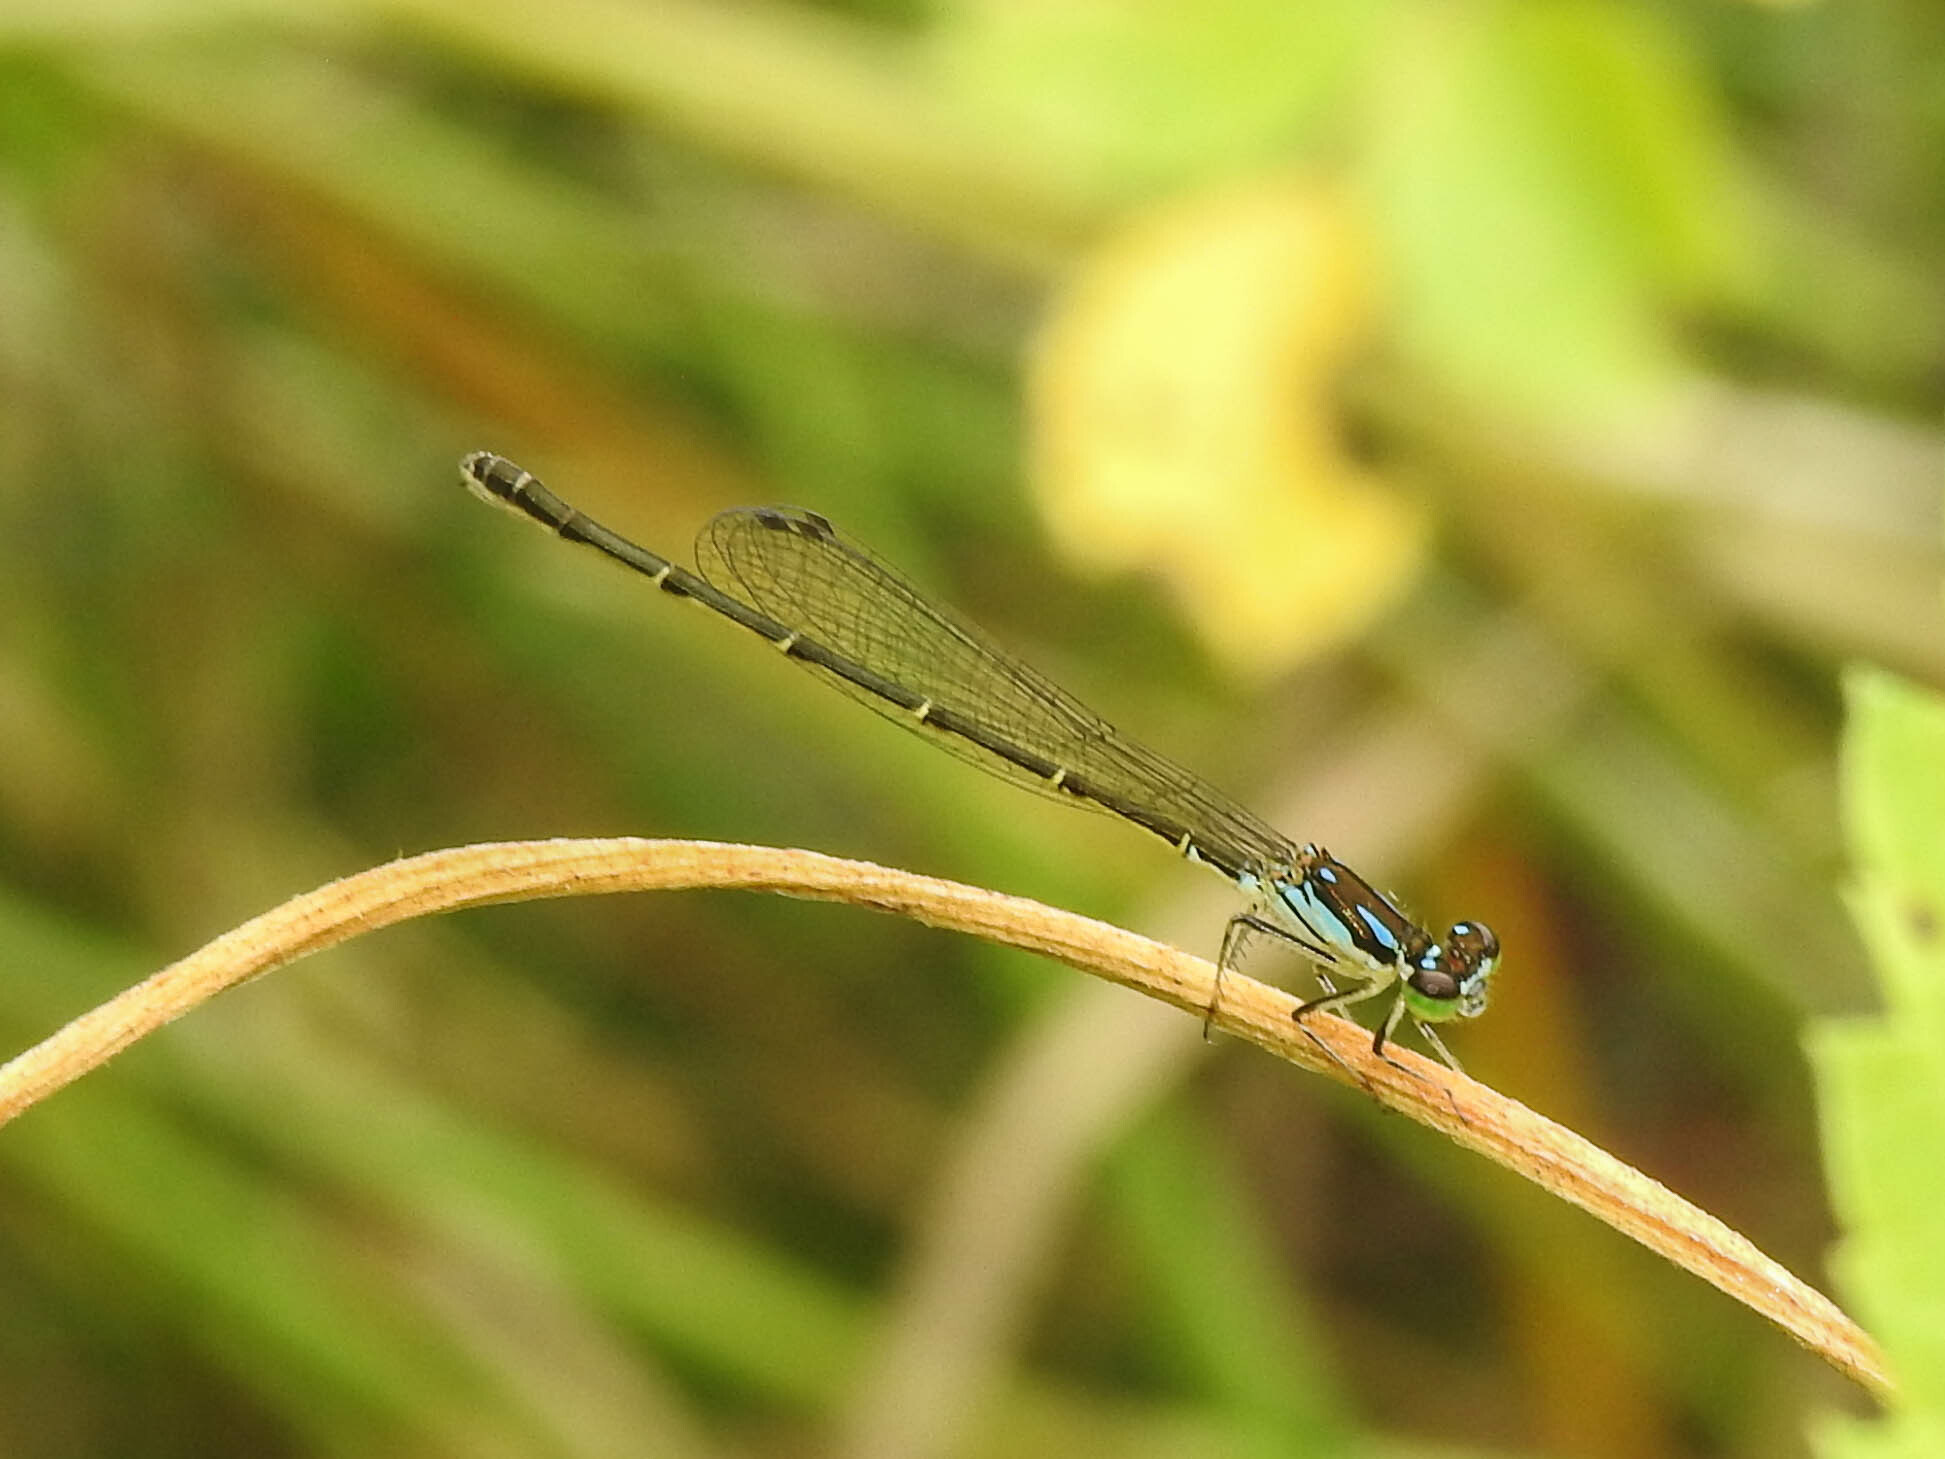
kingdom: Animalia
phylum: Arthropoda
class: Insecta
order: Odonata
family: Coenagrionidae
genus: Ischnura
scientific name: Ischnura posita
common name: Fragile forktail
